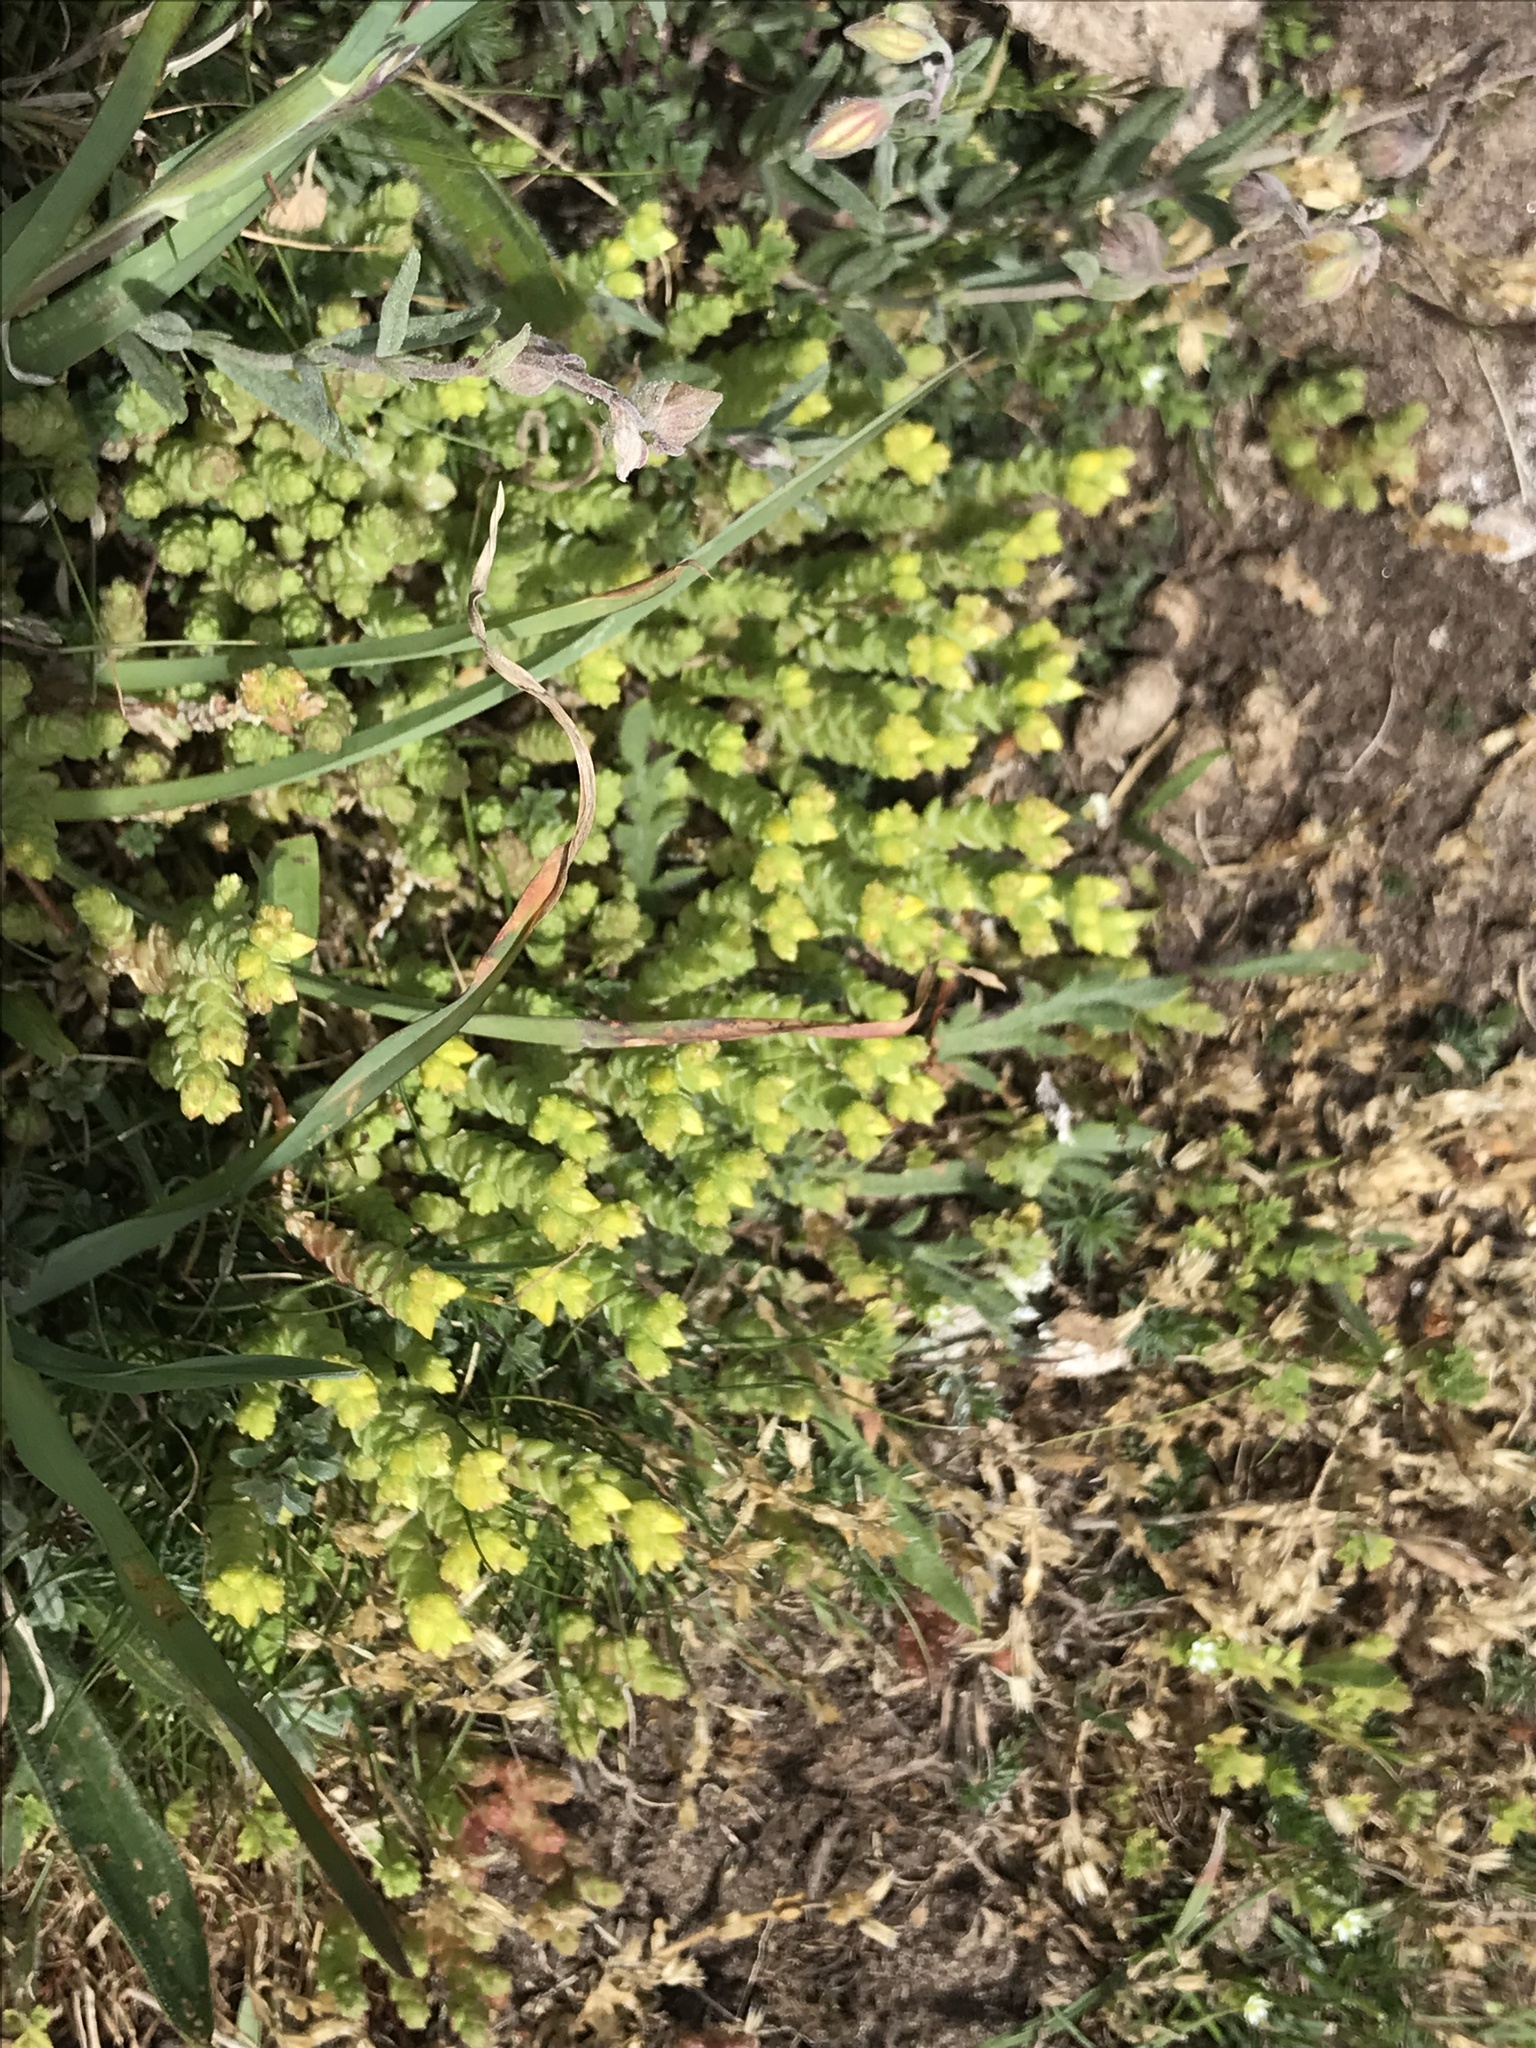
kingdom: Plantae
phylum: Tracheophyta
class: Magnoliopsida
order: Saxifragales
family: Crassulaceae
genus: Sedum
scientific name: Sedum acre
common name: Biting stonecrop
